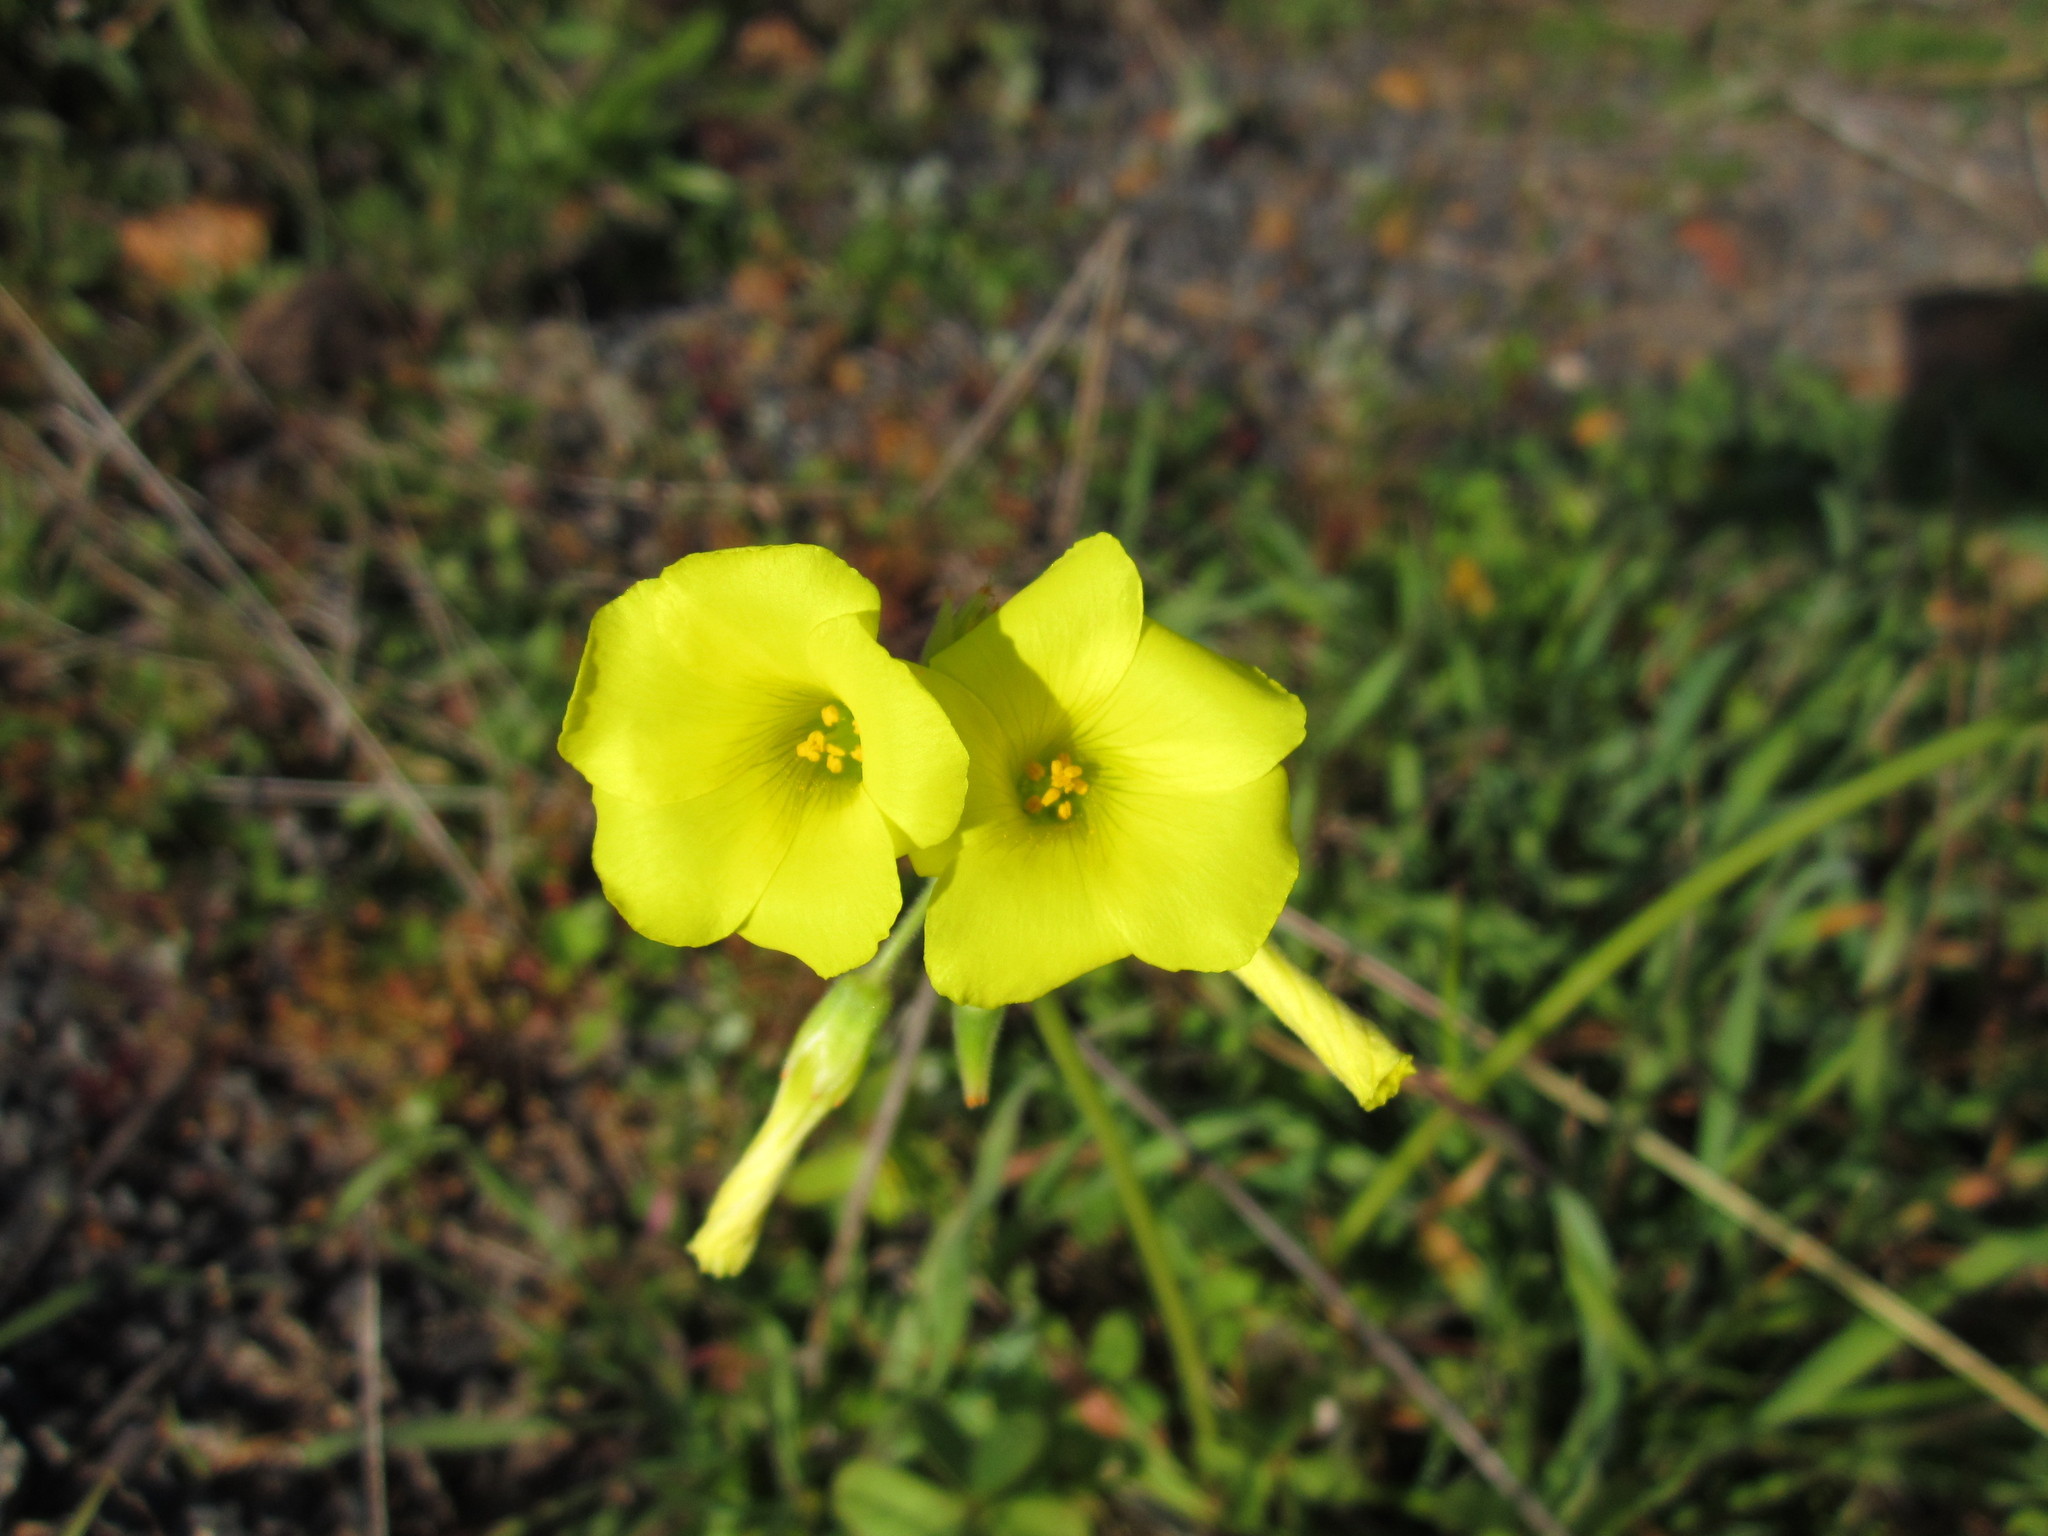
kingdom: Plantae
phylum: Tracheophyta
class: Magnoliopsida
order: Oxalidales
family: Oxalidaceae
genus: Oxalis
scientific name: Oxalis pes-caprae
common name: Bermuda-buttercup
